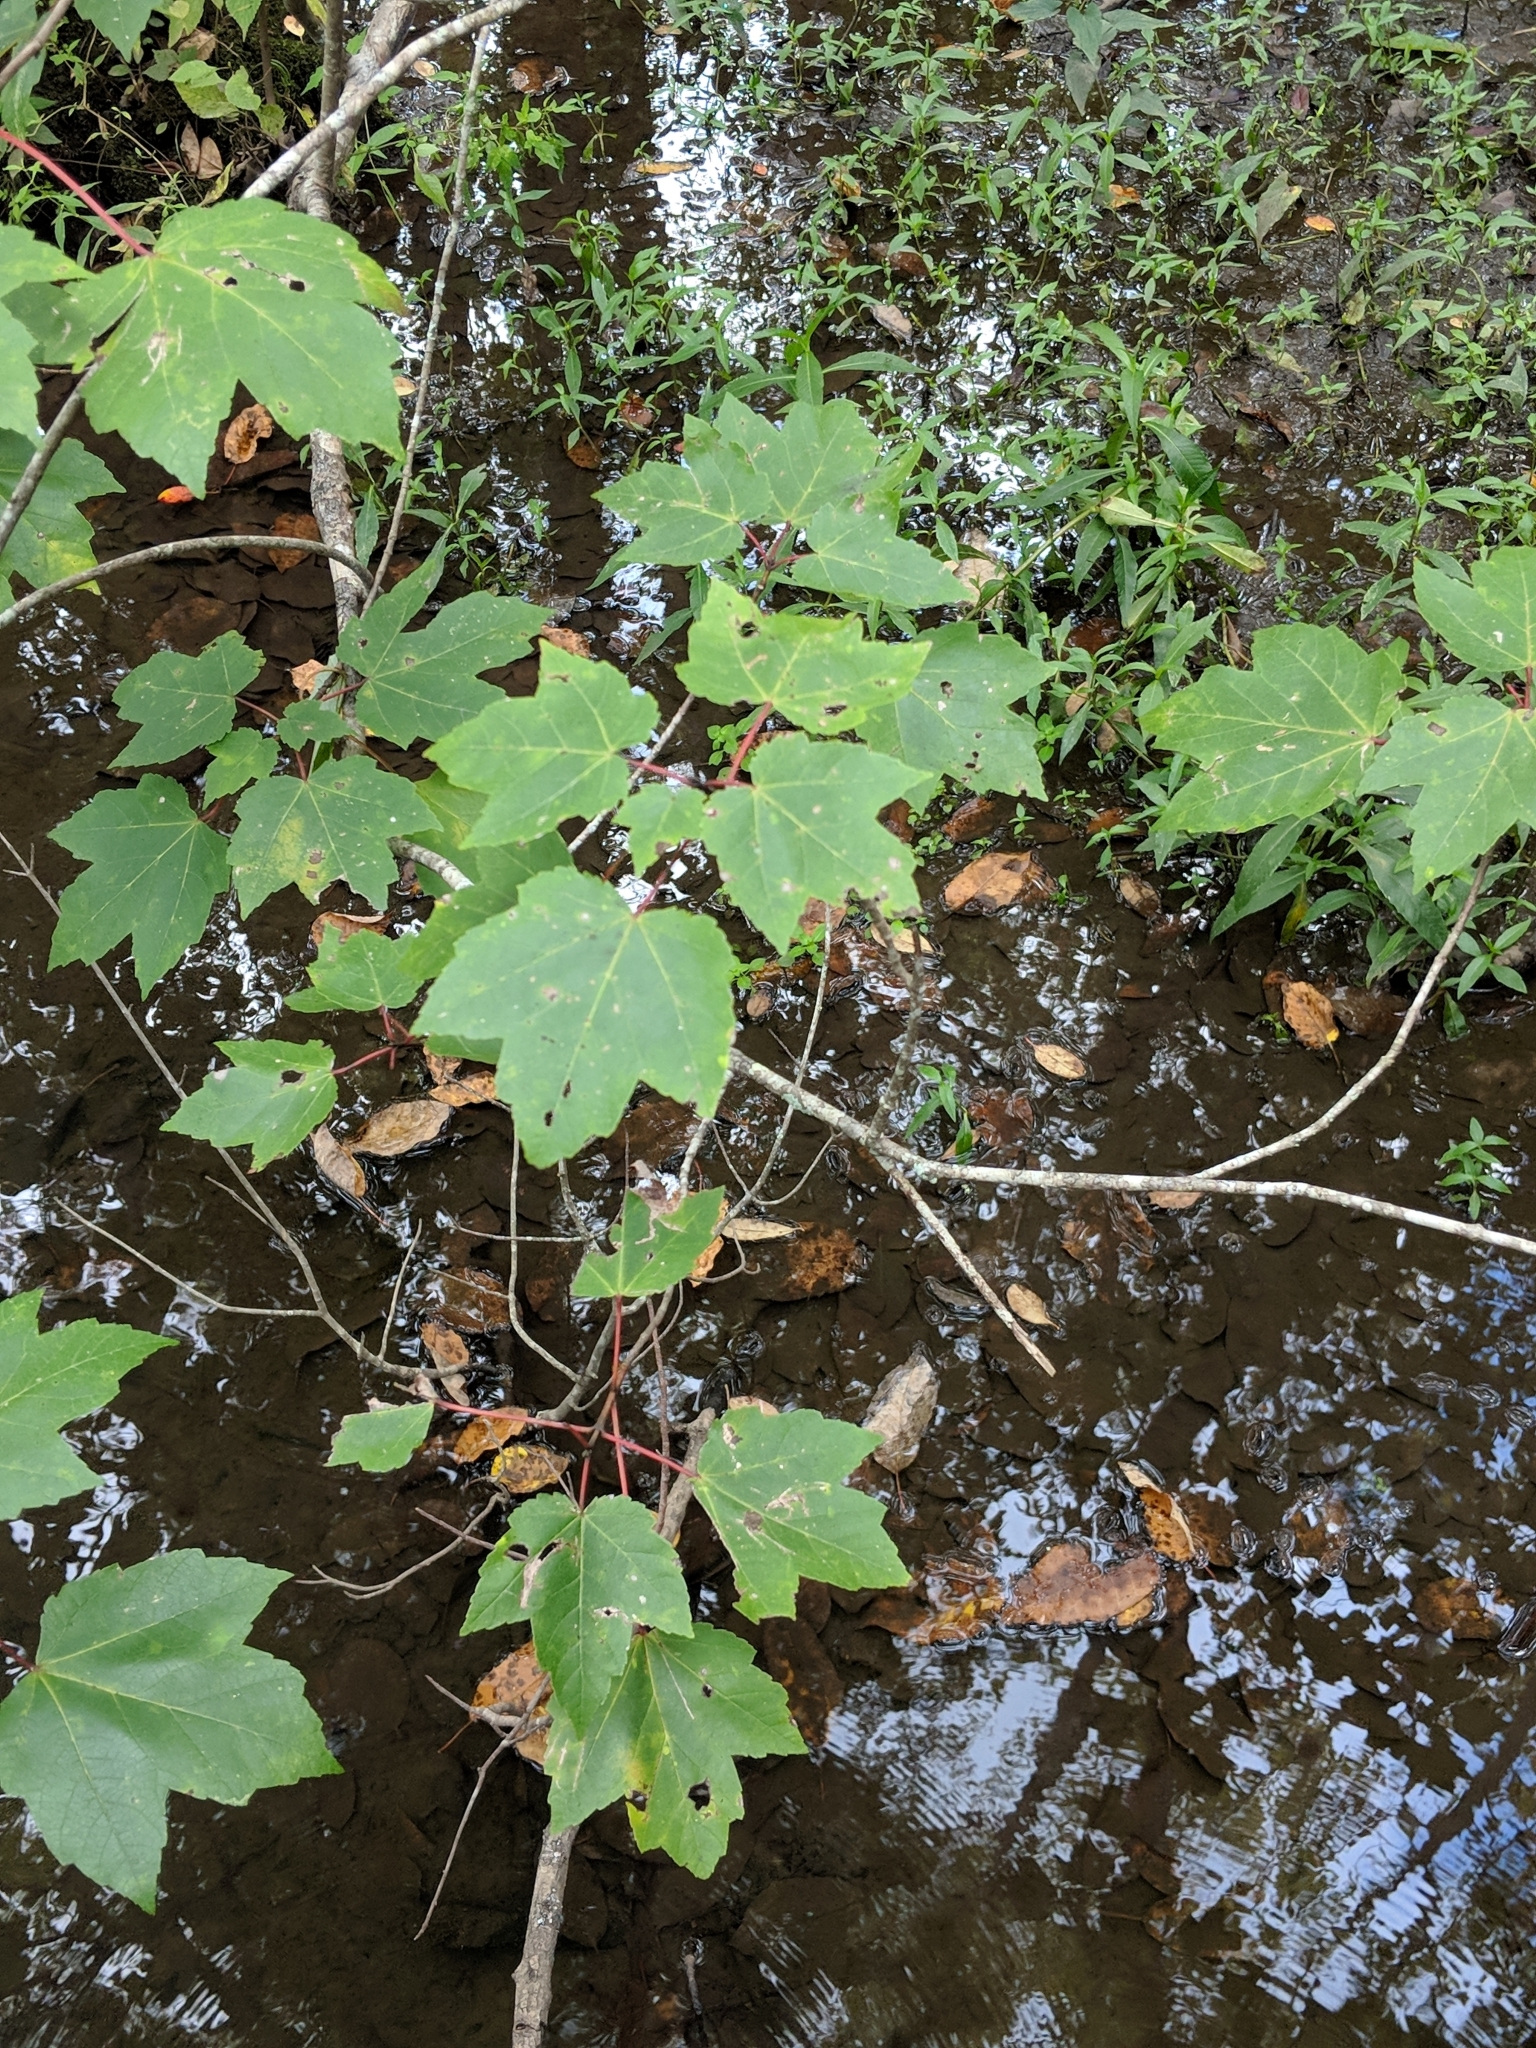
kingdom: Plantae
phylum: Tracheophyta
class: Magnoliopsida
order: Sapindales
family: Sapindaceae
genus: Acer
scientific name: Acer rubrum
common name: Red maple
